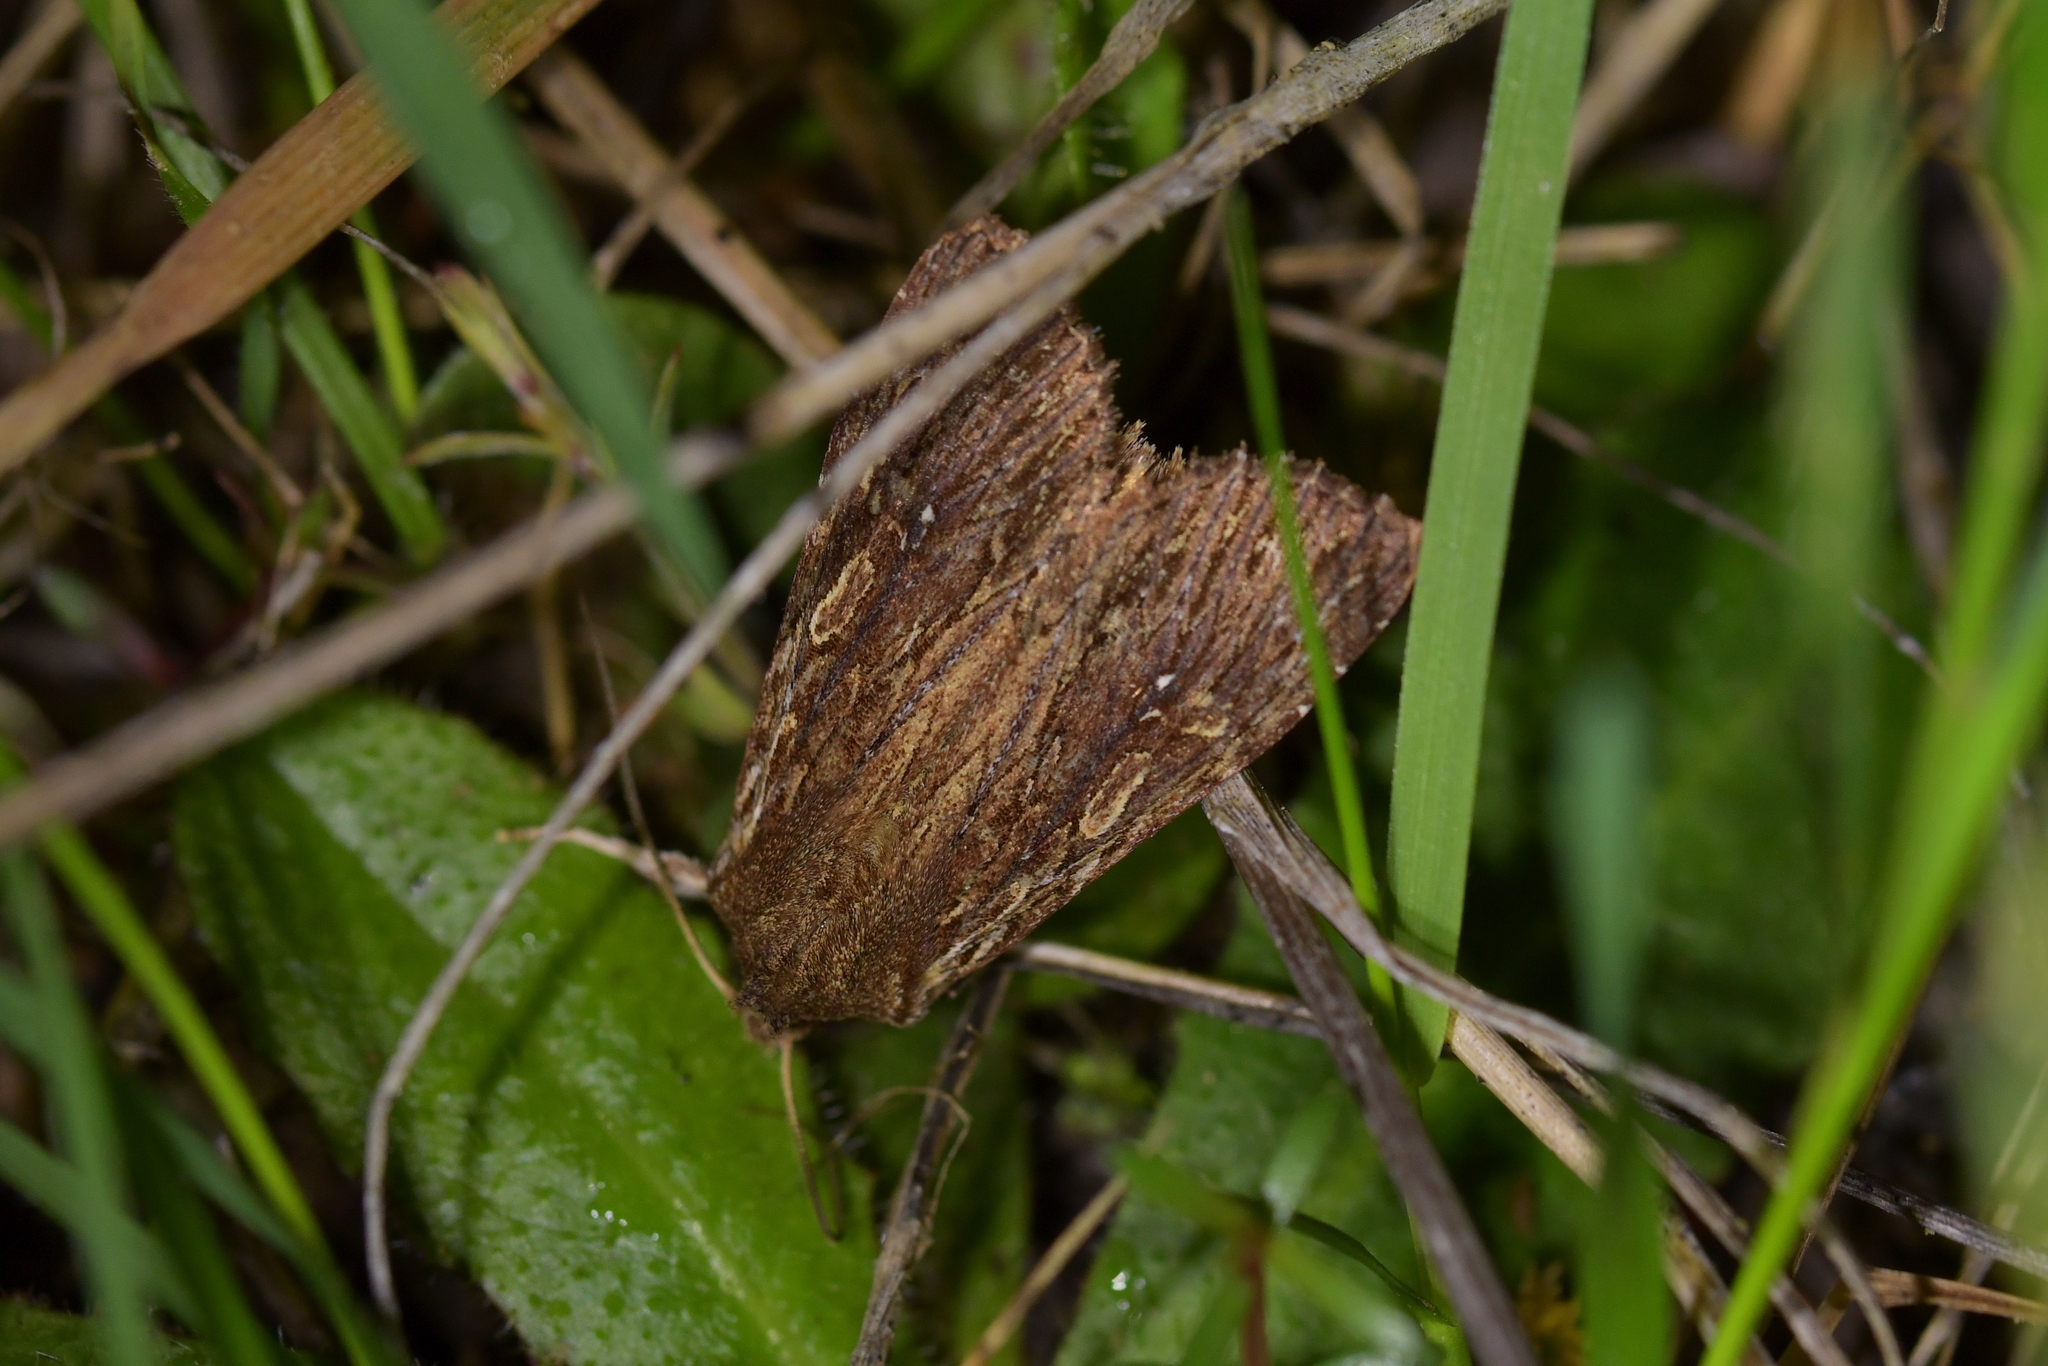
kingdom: Animalia
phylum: Arthropoda
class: Insecta
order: Lepidoptera
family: Noctuidae
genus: Ichneutica
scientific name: Ichneutica
